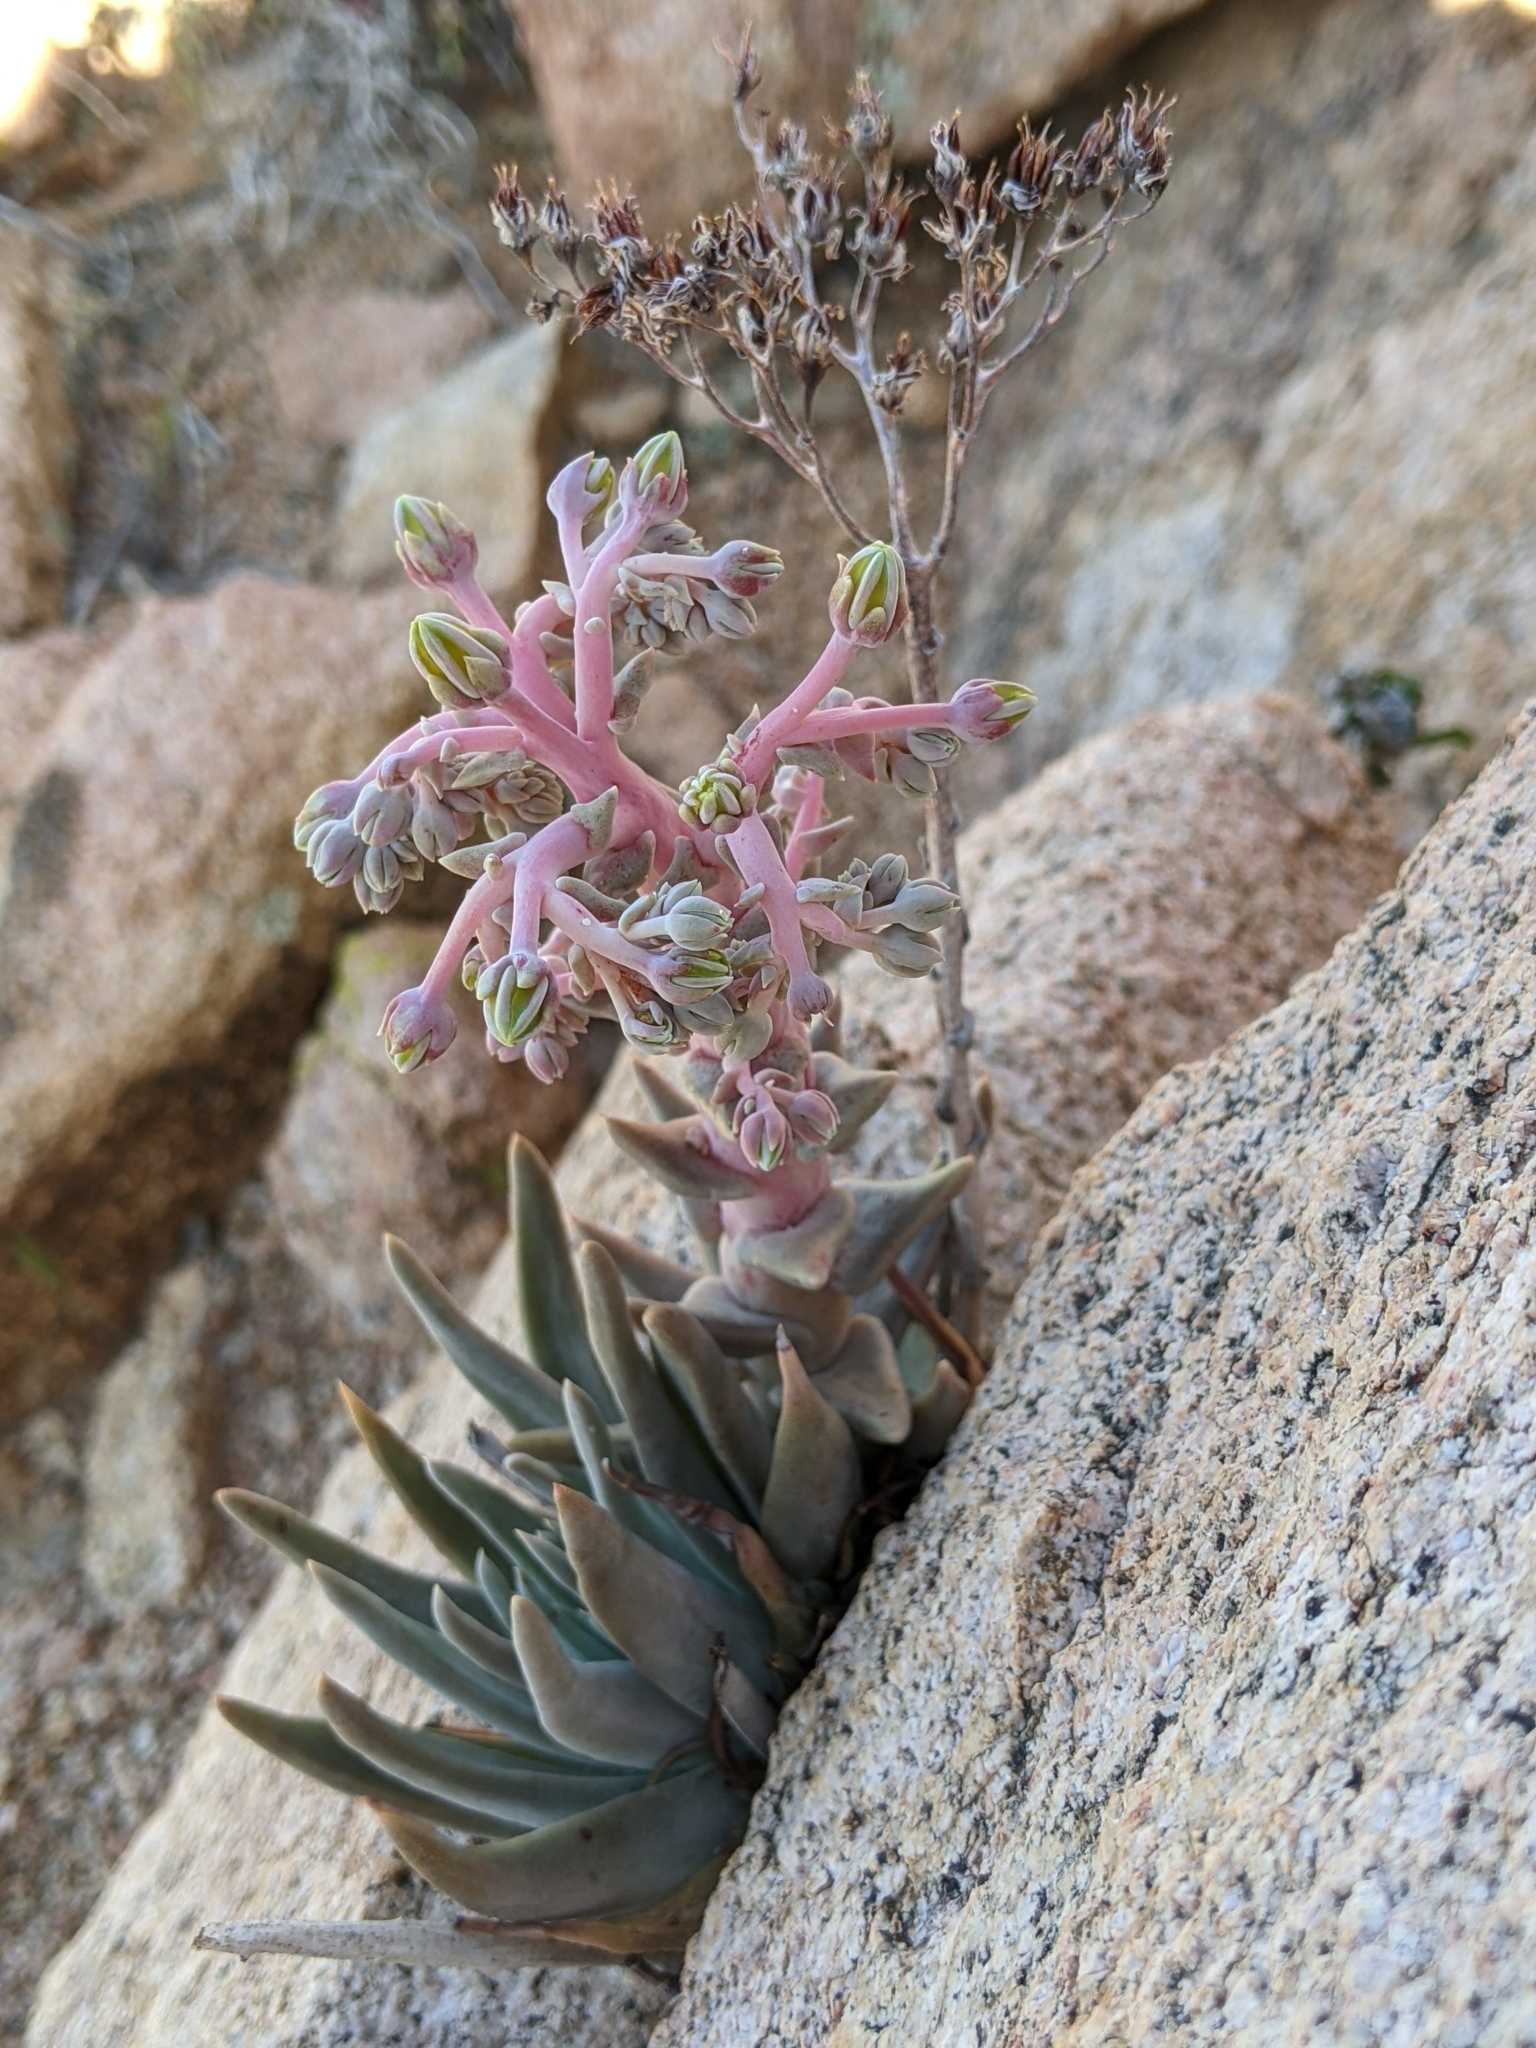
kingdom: Plantae
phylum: Tracheophyta
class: Magnoliopsida
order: Saxifragales
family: Crassulaceae
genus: Dudleya
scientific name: Dudleya saxosa
